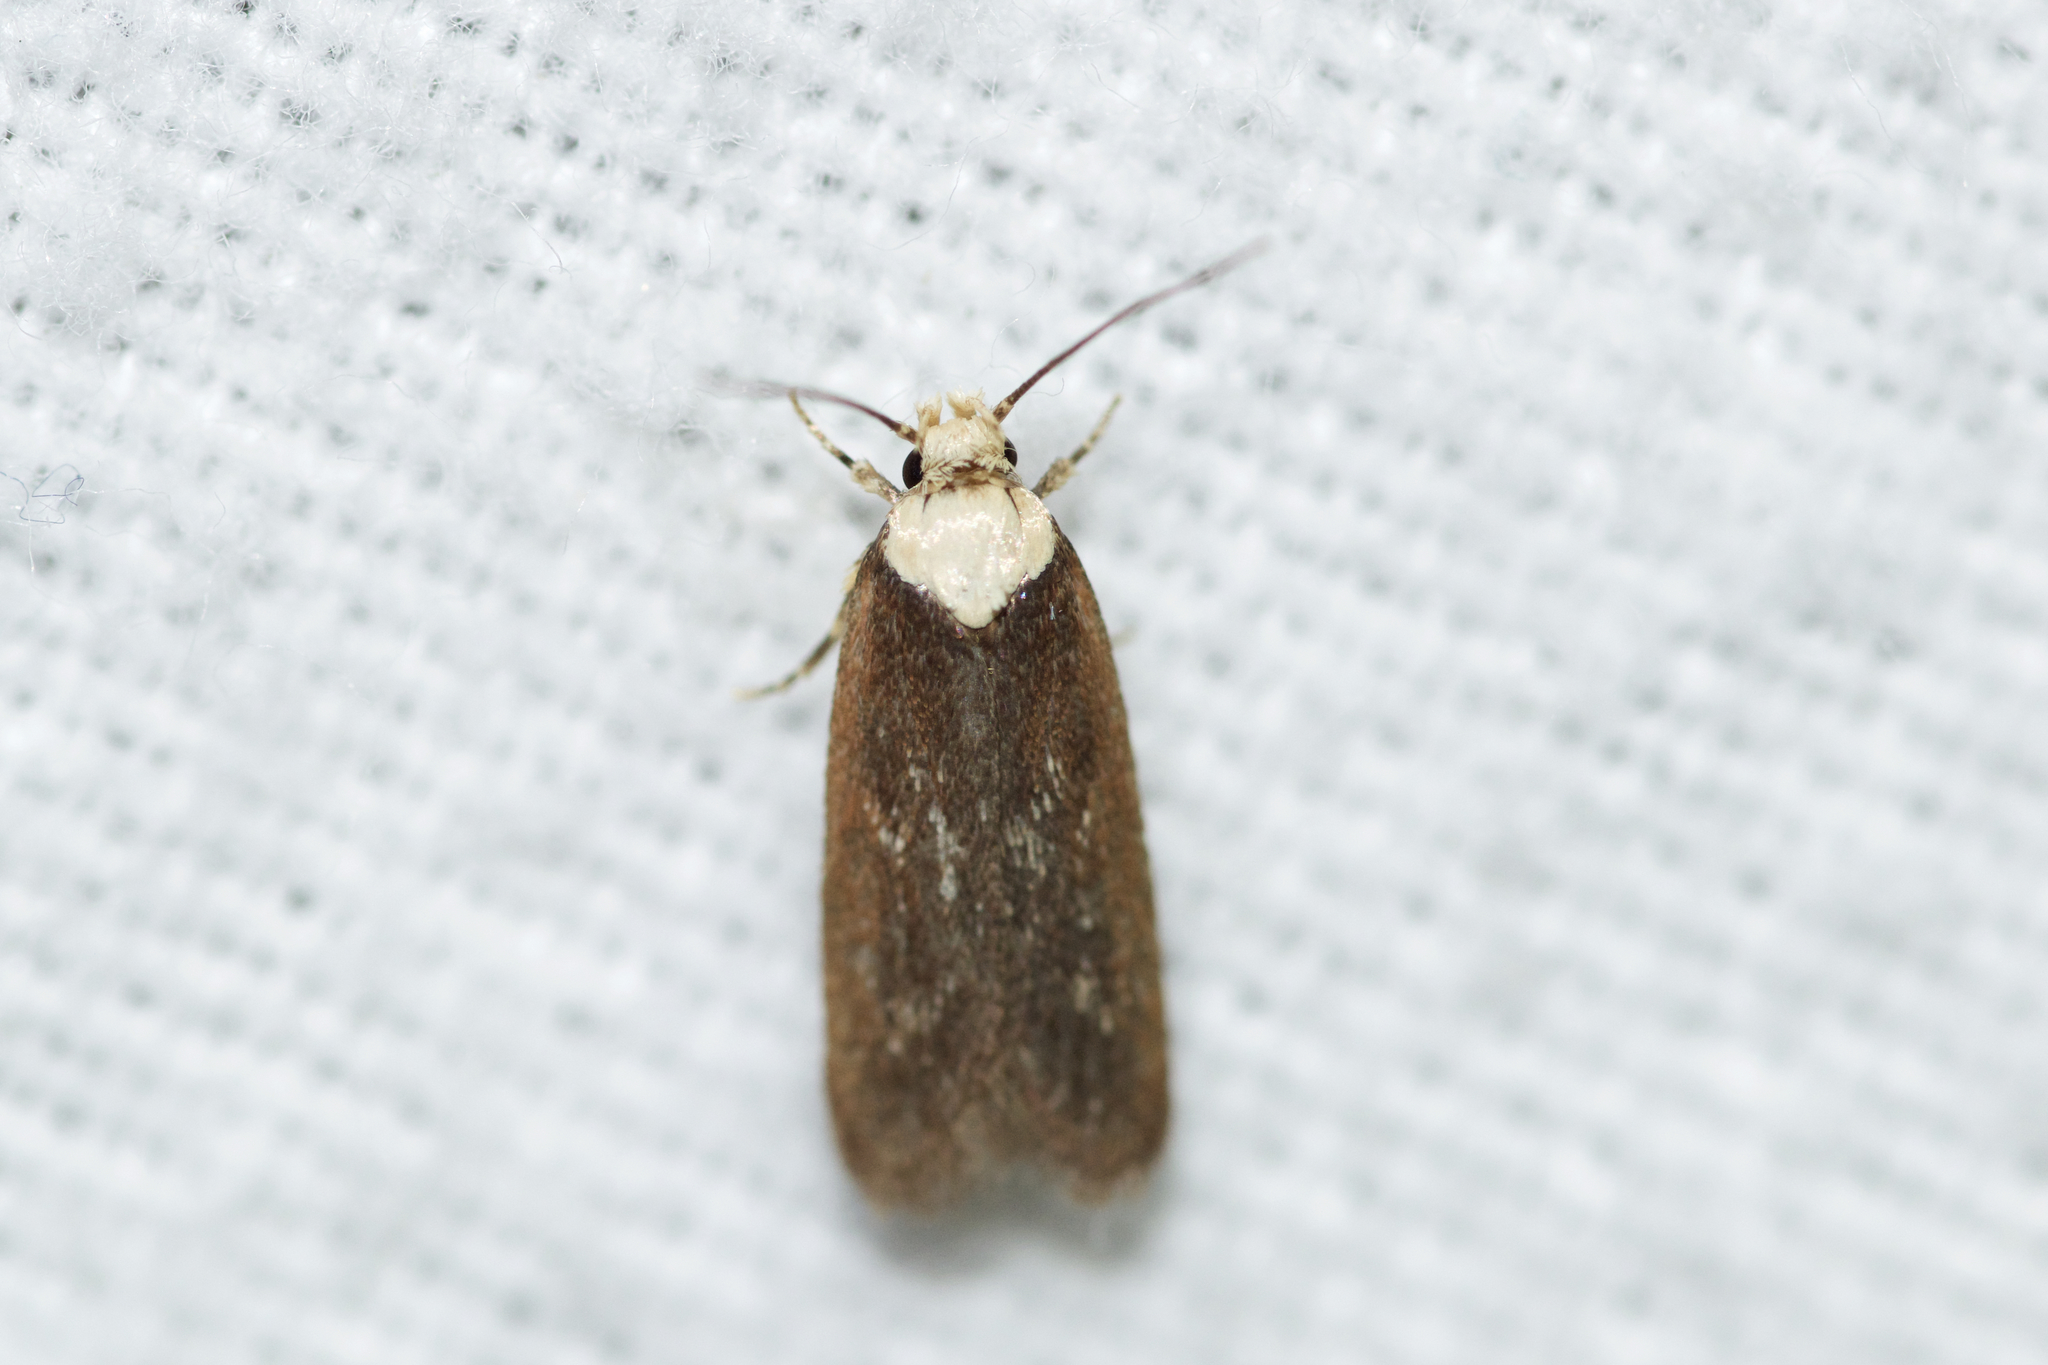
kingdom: Animalia
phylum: Arthropoda
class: Insecta
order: Lepidoptera
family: Depressariidae
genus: Depressaria
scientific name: Depressaria depressana
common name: Lost flat-body
